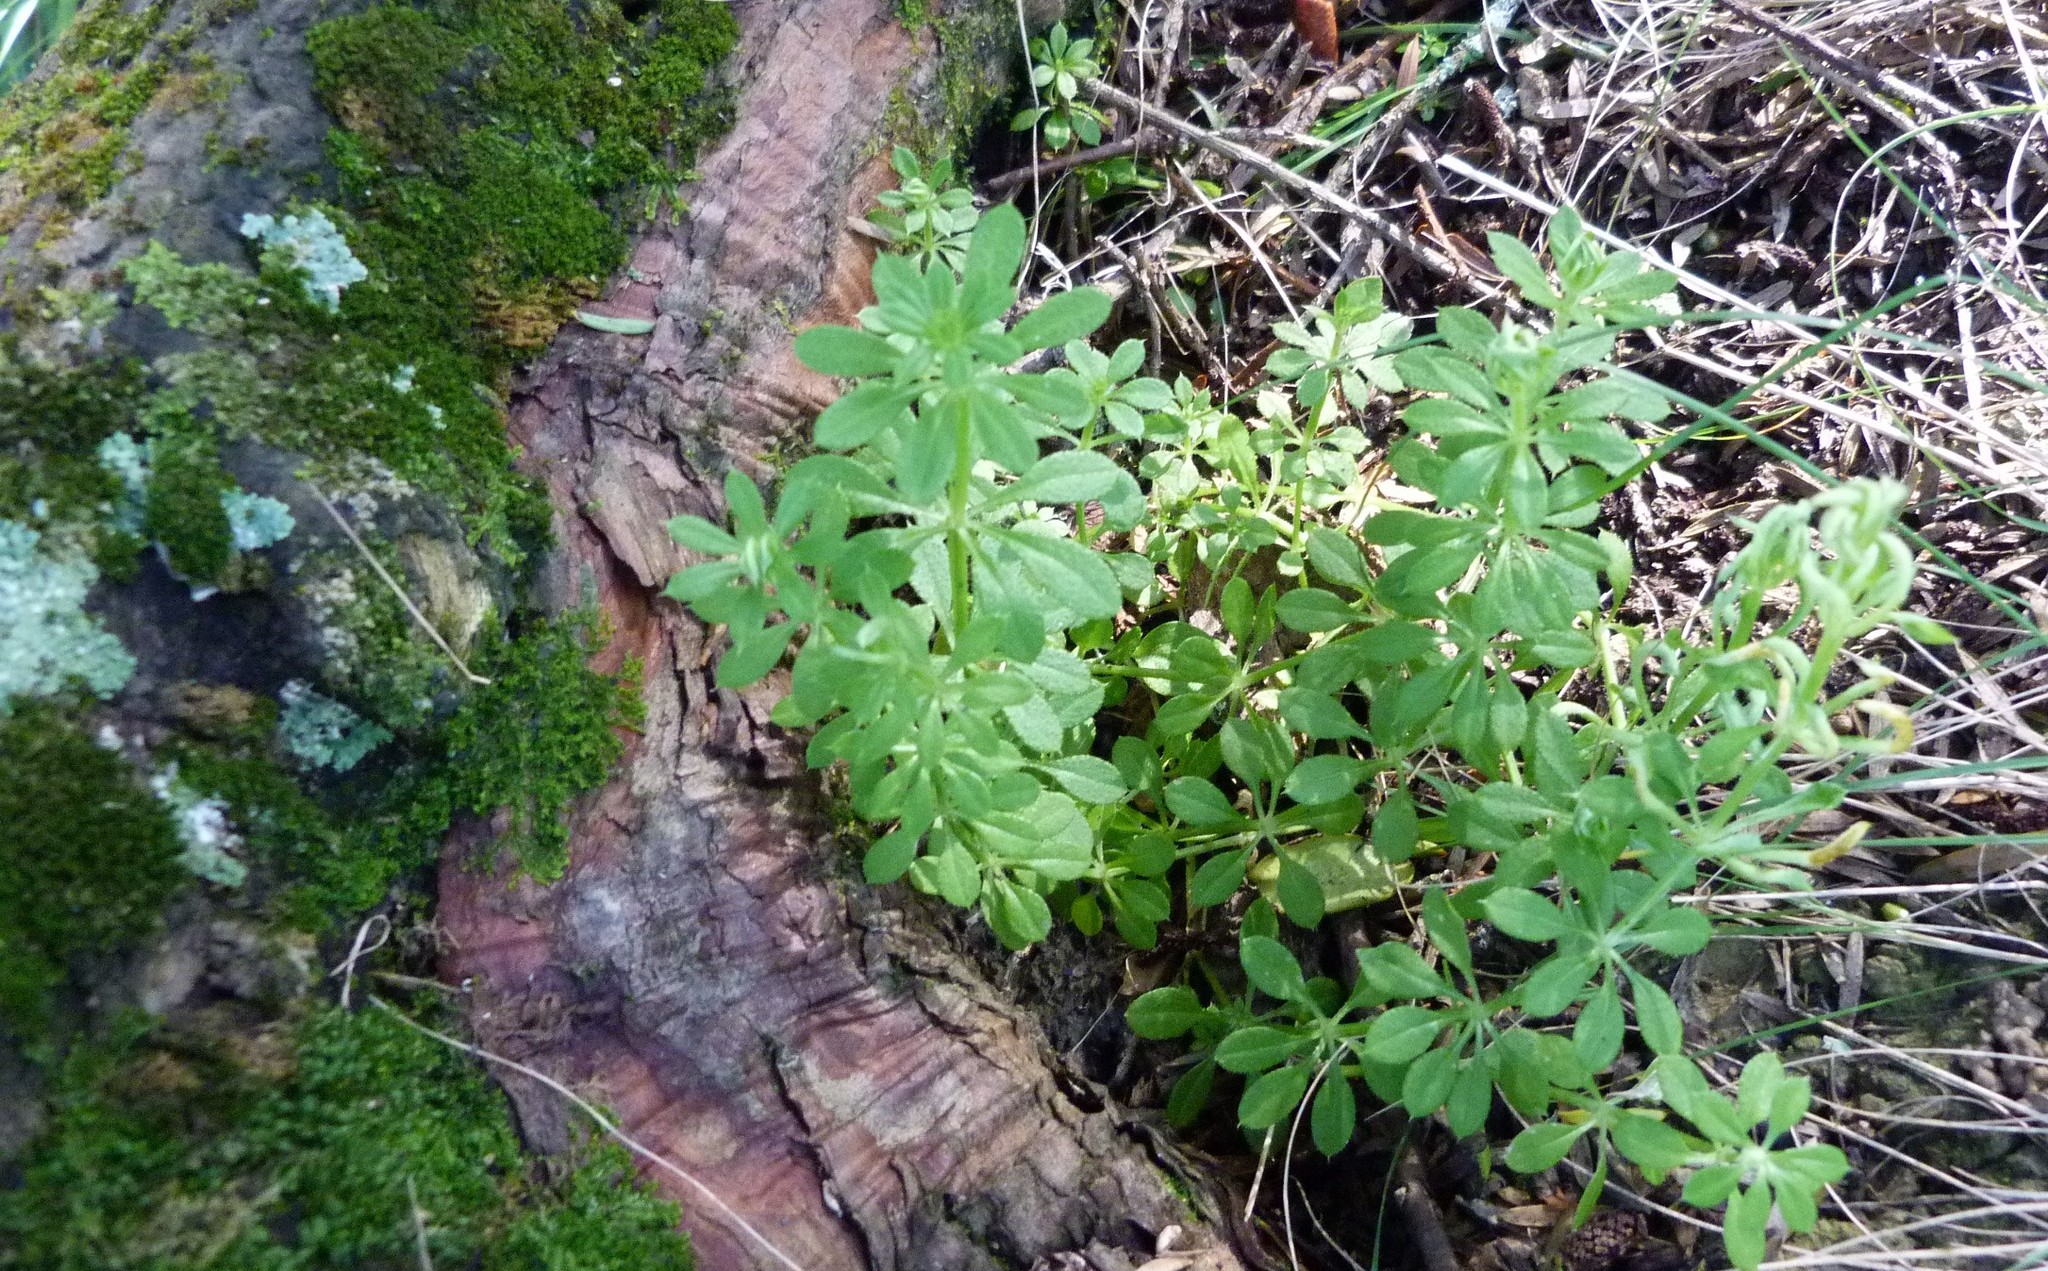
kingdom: Plantae
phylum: Tracheophyta
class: Magnoliopsida
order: Gentianales
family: Rubiaceae
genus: Galium
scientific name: Galium aparine
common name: Cleavers
